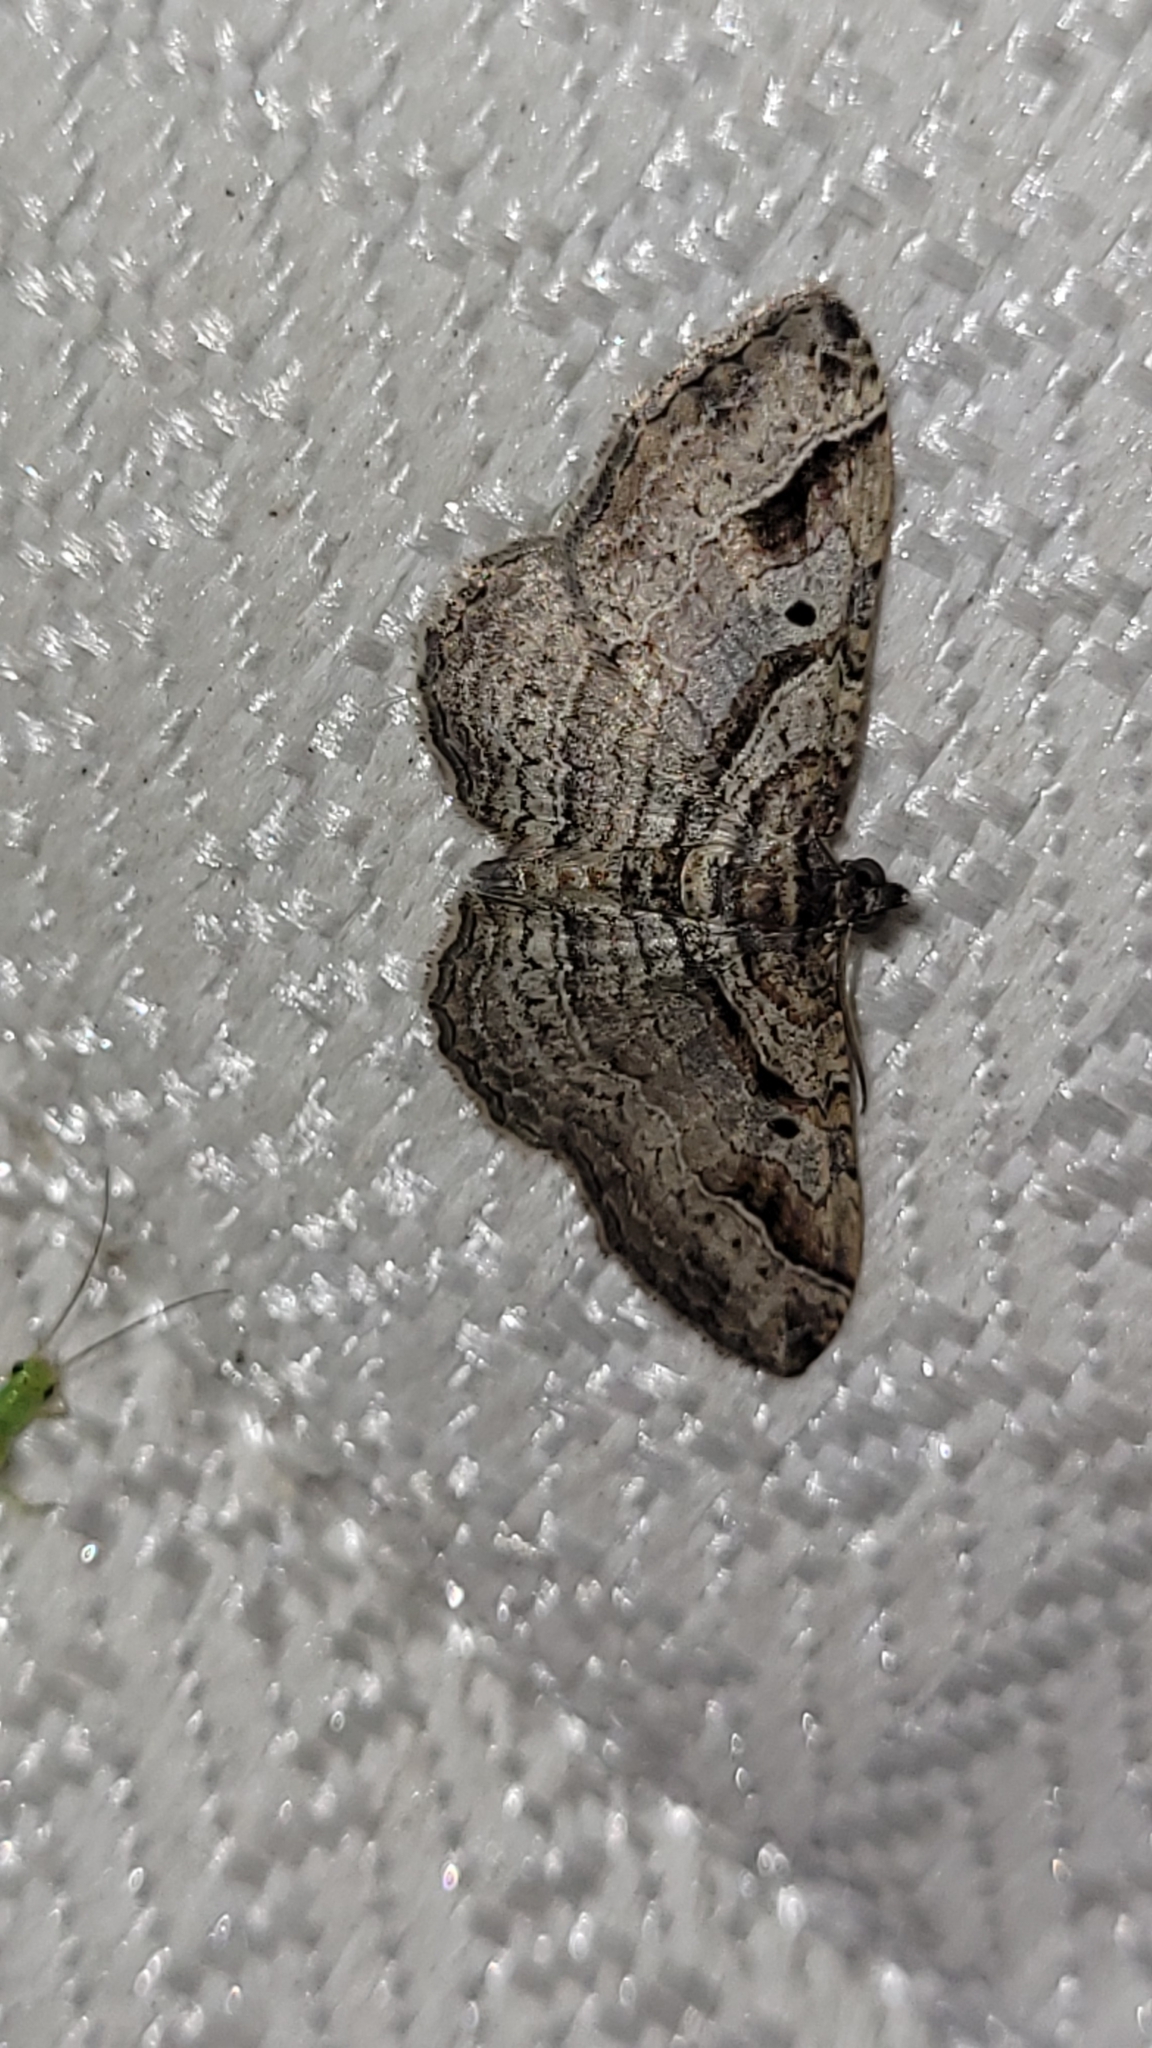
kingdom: Animalia
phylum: Arthropoda
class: Insecta
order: Lepidoptera
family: Geometridae
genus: Costaconvexa
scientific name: Costaconvexa centrostrigaria
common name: Bent-line carpet
